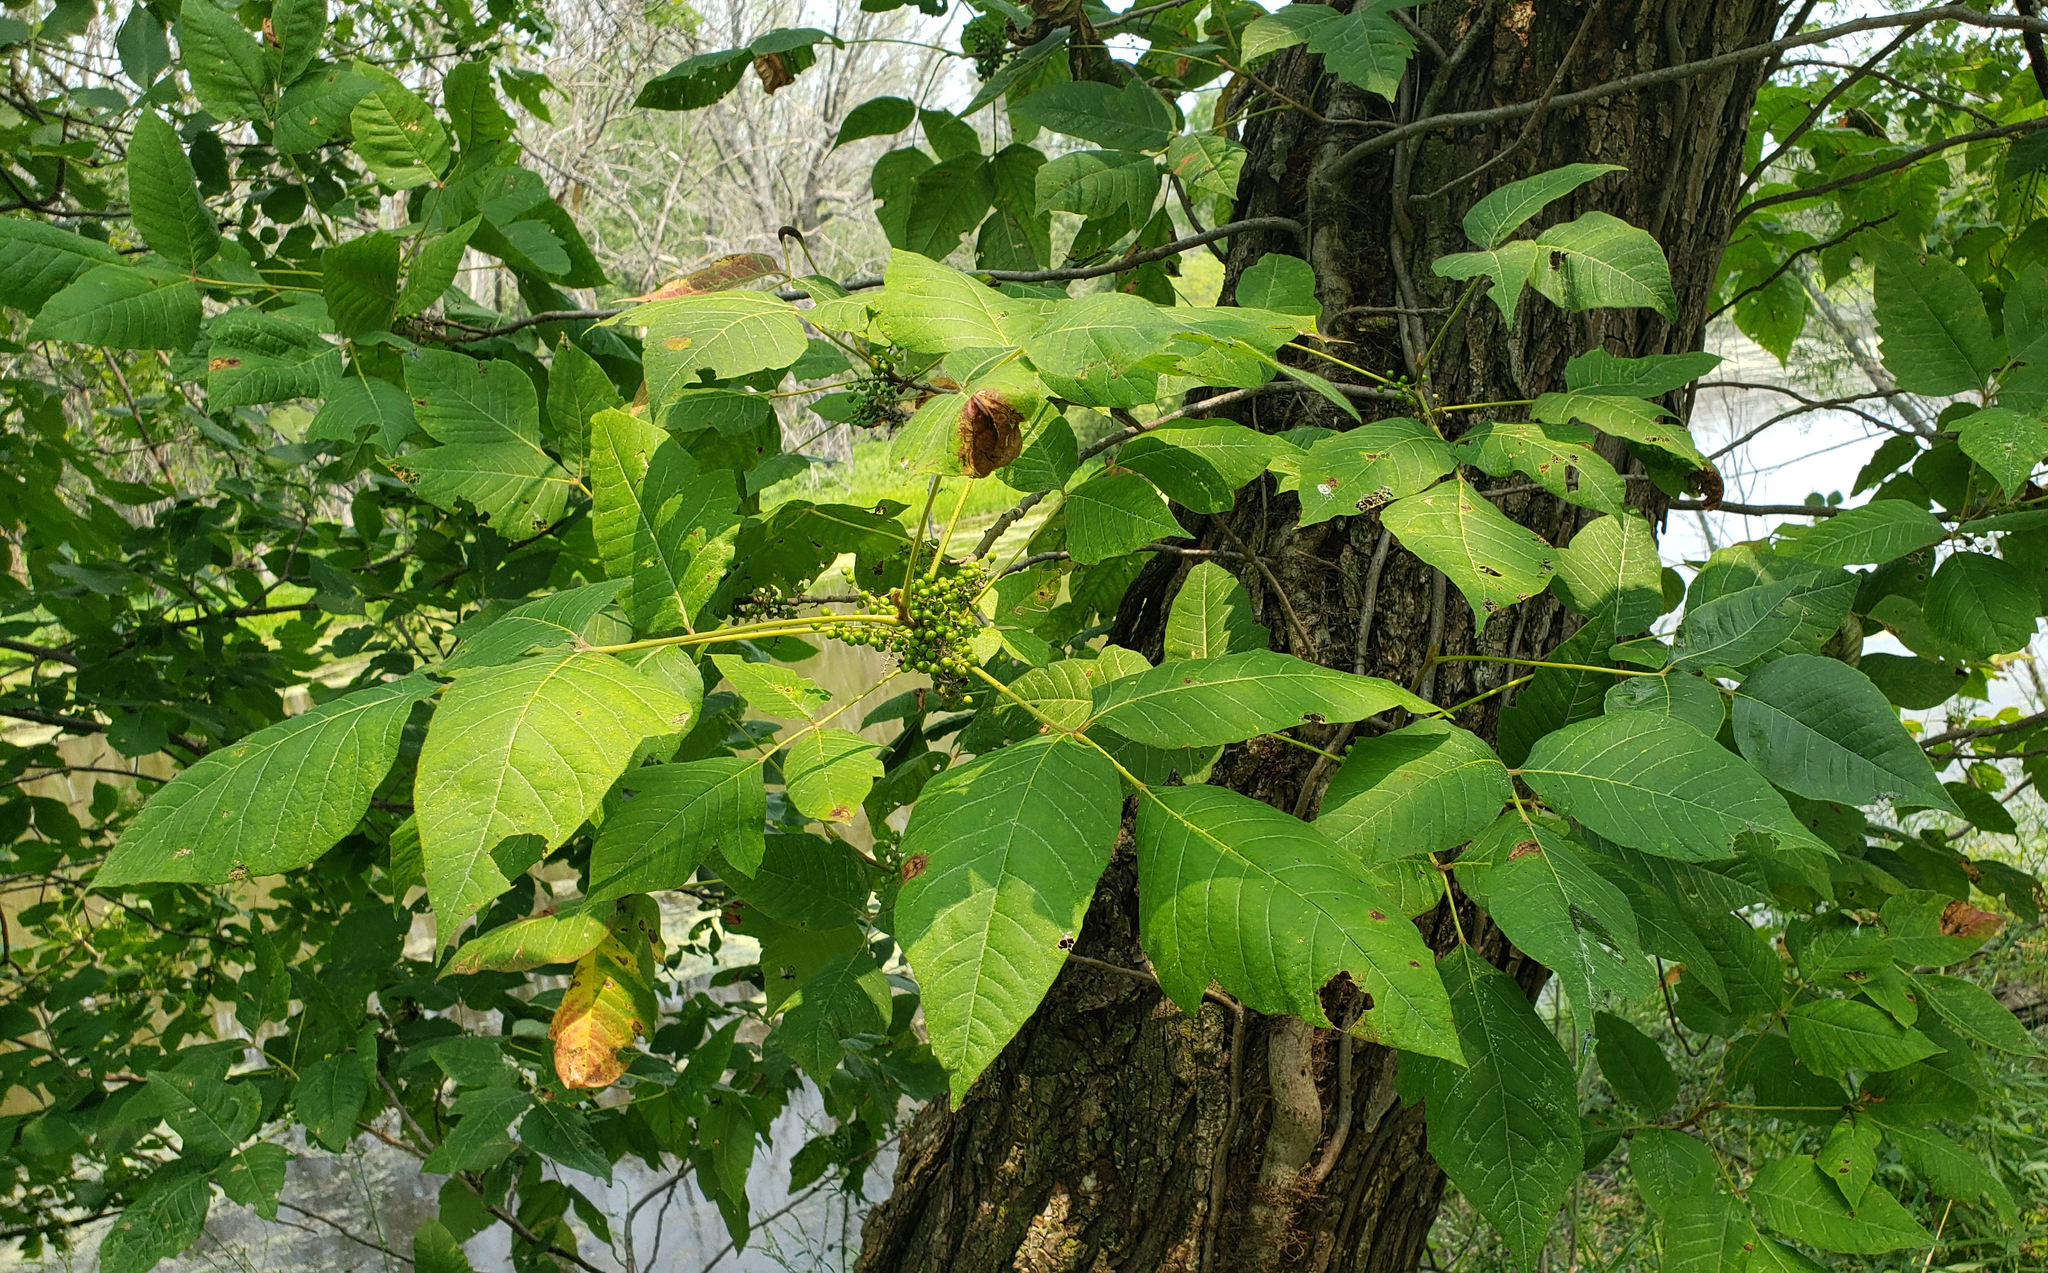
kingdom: Plantae
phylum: Tracheophyta
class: Magnoliopsida
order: Sapindales
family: Anacardiaceae
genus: Toxicodendron
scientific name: Toxicodendron radicans
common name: Poison ivy
